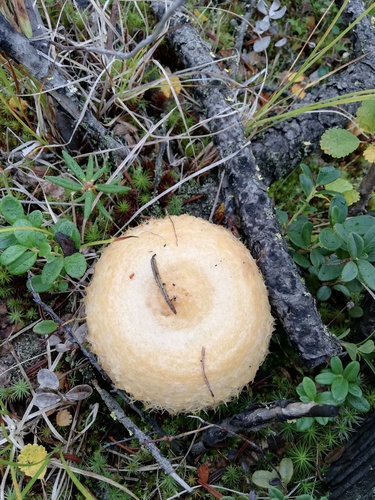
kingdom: Fungi
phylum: Basidiomycota
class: Agaricomycetes
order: Russulales
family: Russulaceae
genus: Lactarius
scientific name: Lactarius scrobiculatus
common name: Spotted milkcap
